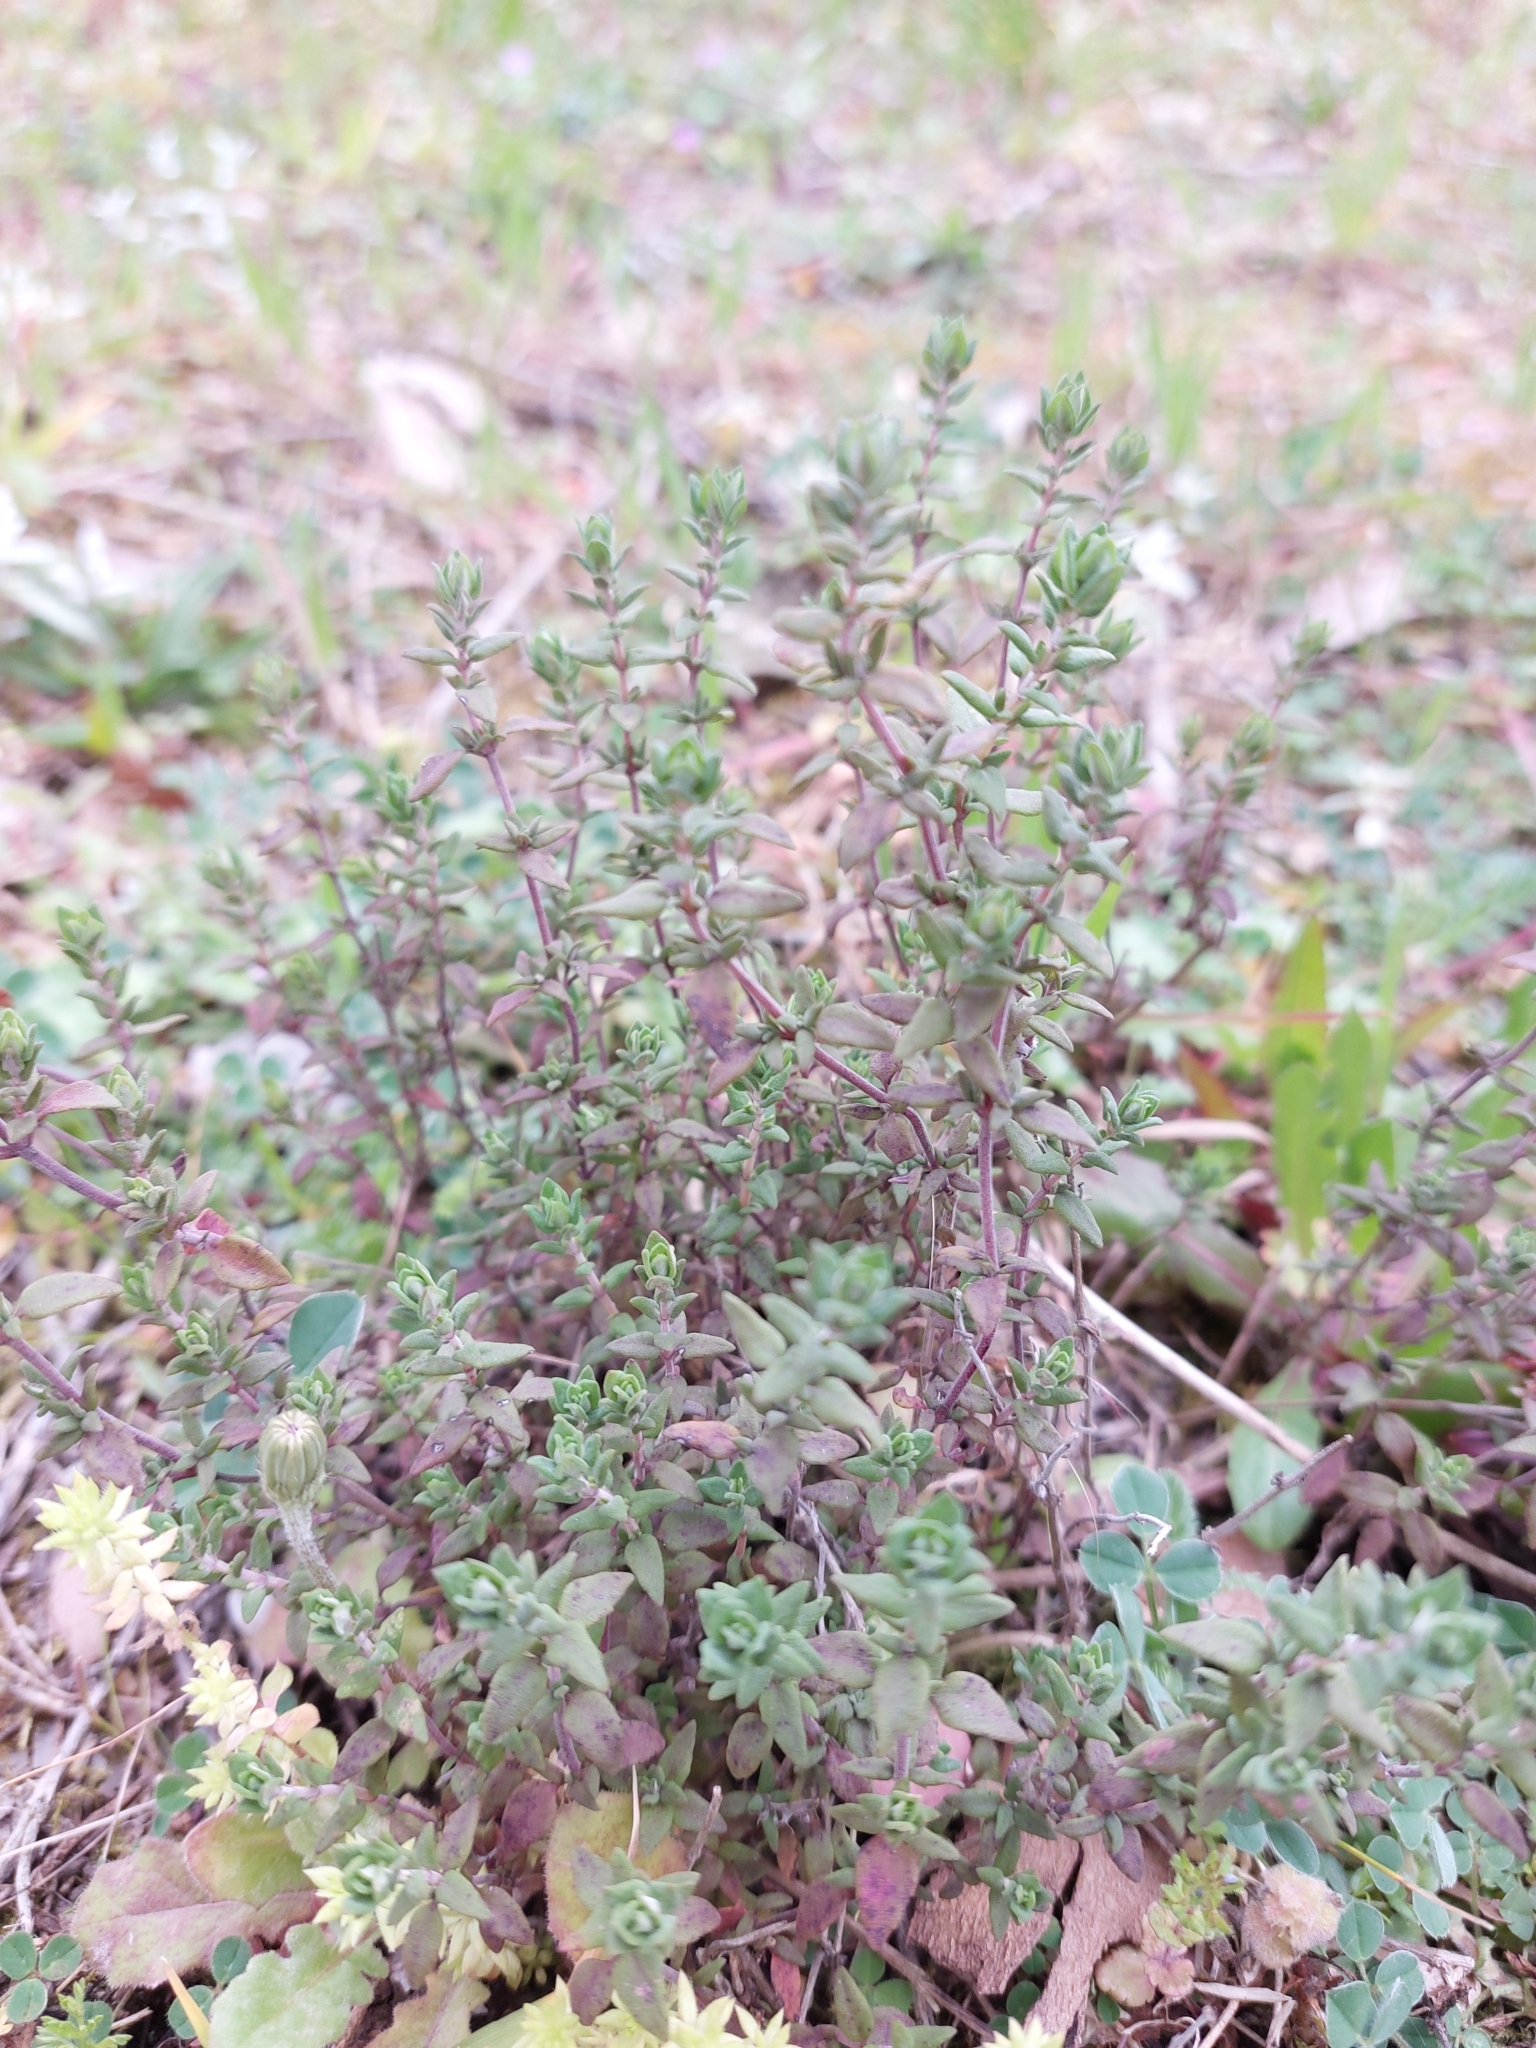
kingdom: Plantae
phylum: Tracheophyta
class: Magnoliopsida
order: Lamiales
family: Lamiaceae
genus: Thymus
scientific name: Thymus vulgaris
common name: Garden thyme
